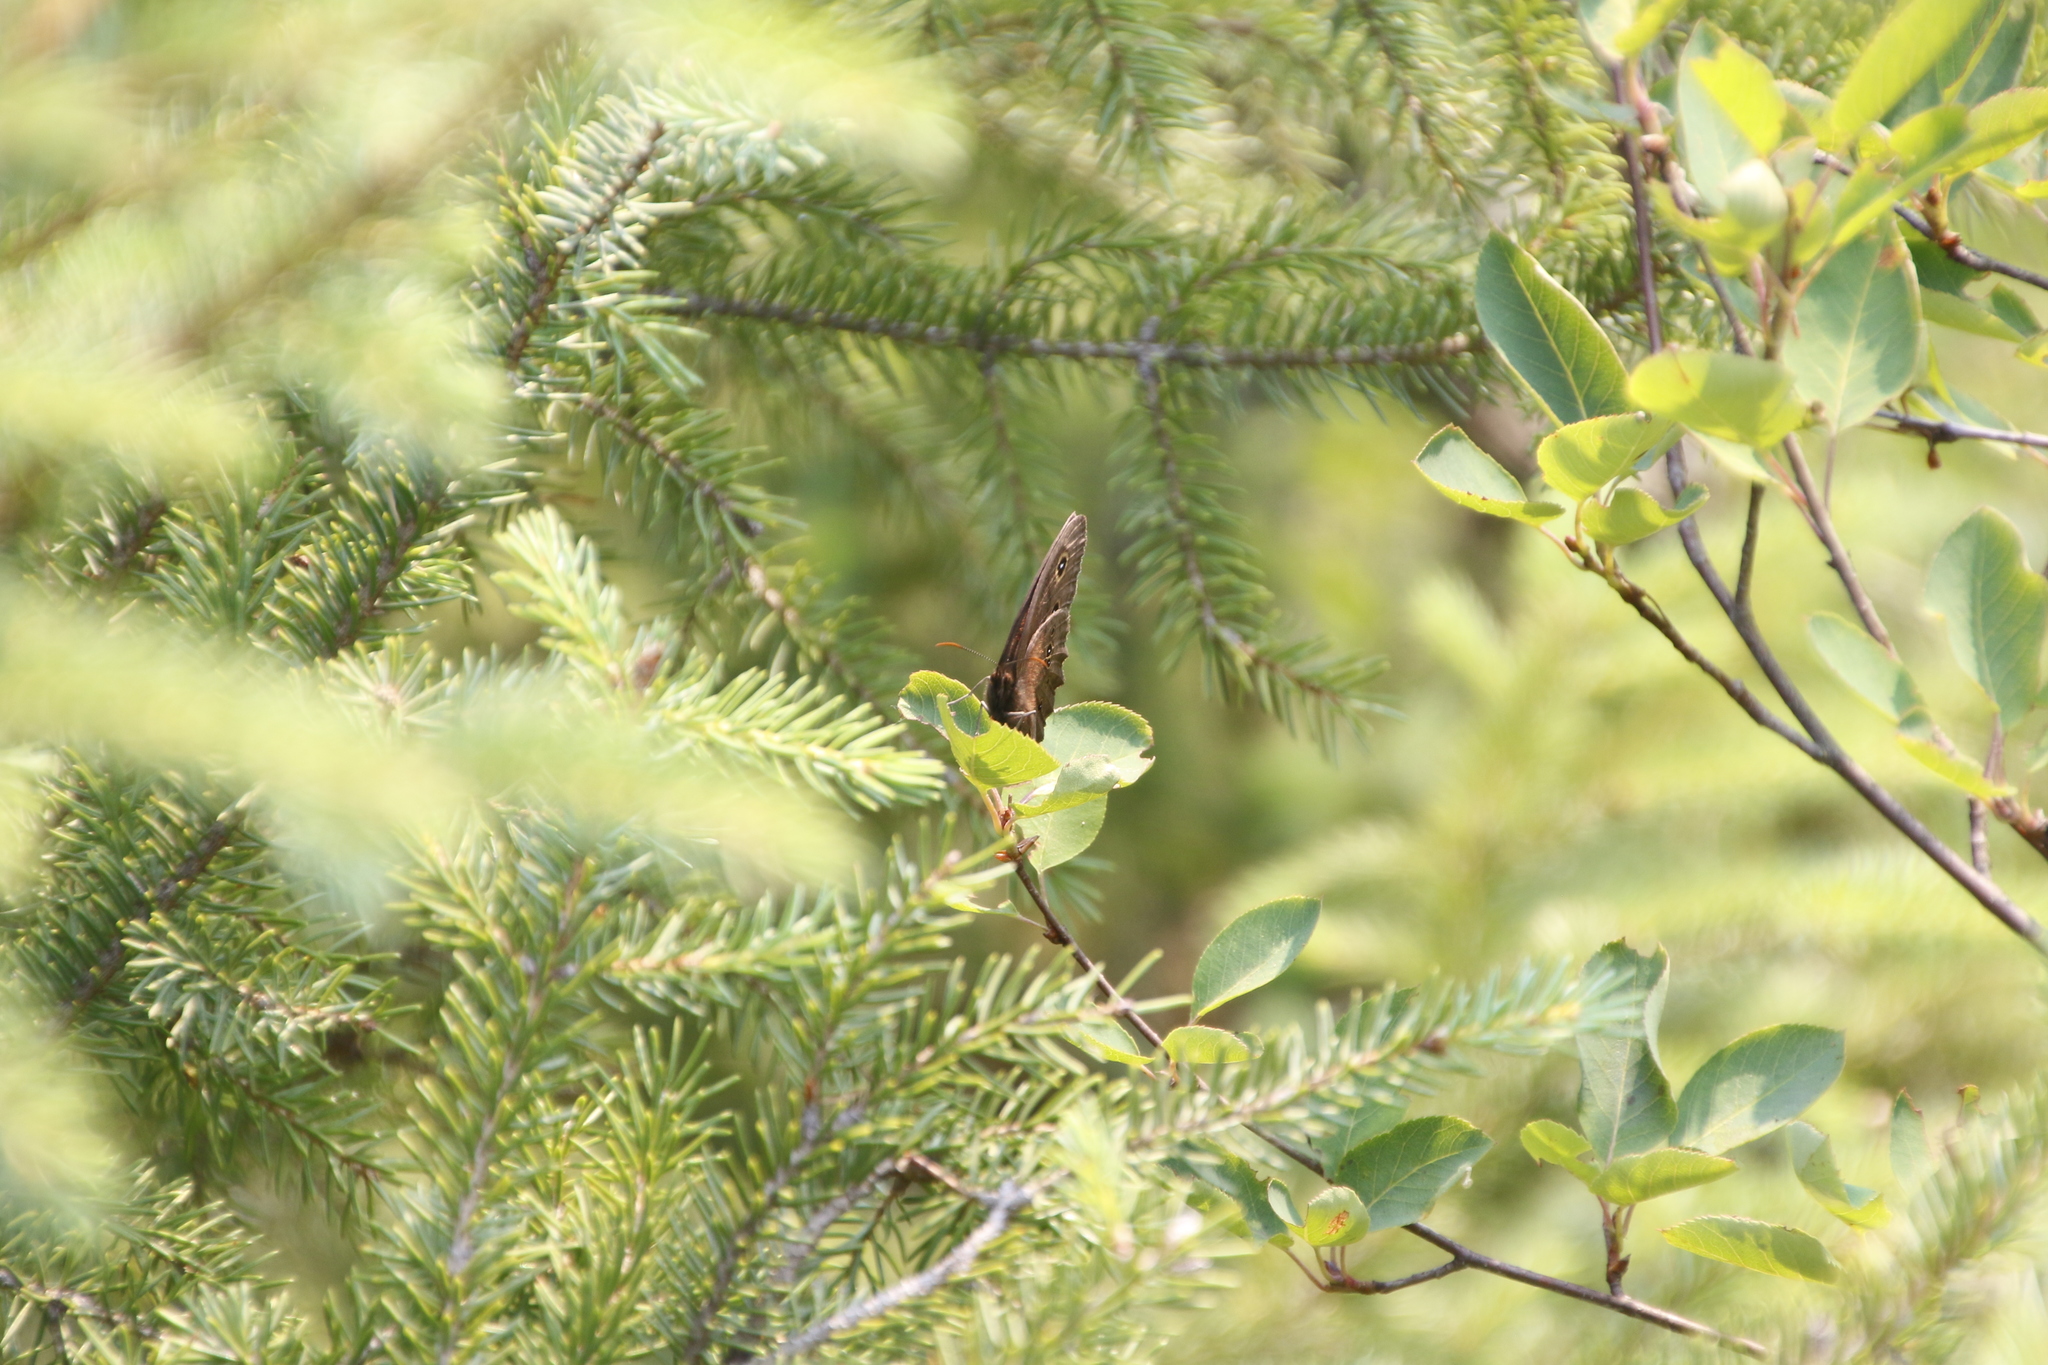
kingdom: Animalia
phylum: Arthropoda
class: Insecta
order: Lepidoptera
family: Nymphalidae
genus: Cercyonis
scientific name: Cercyonis pegala
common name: Common wood-nymph
